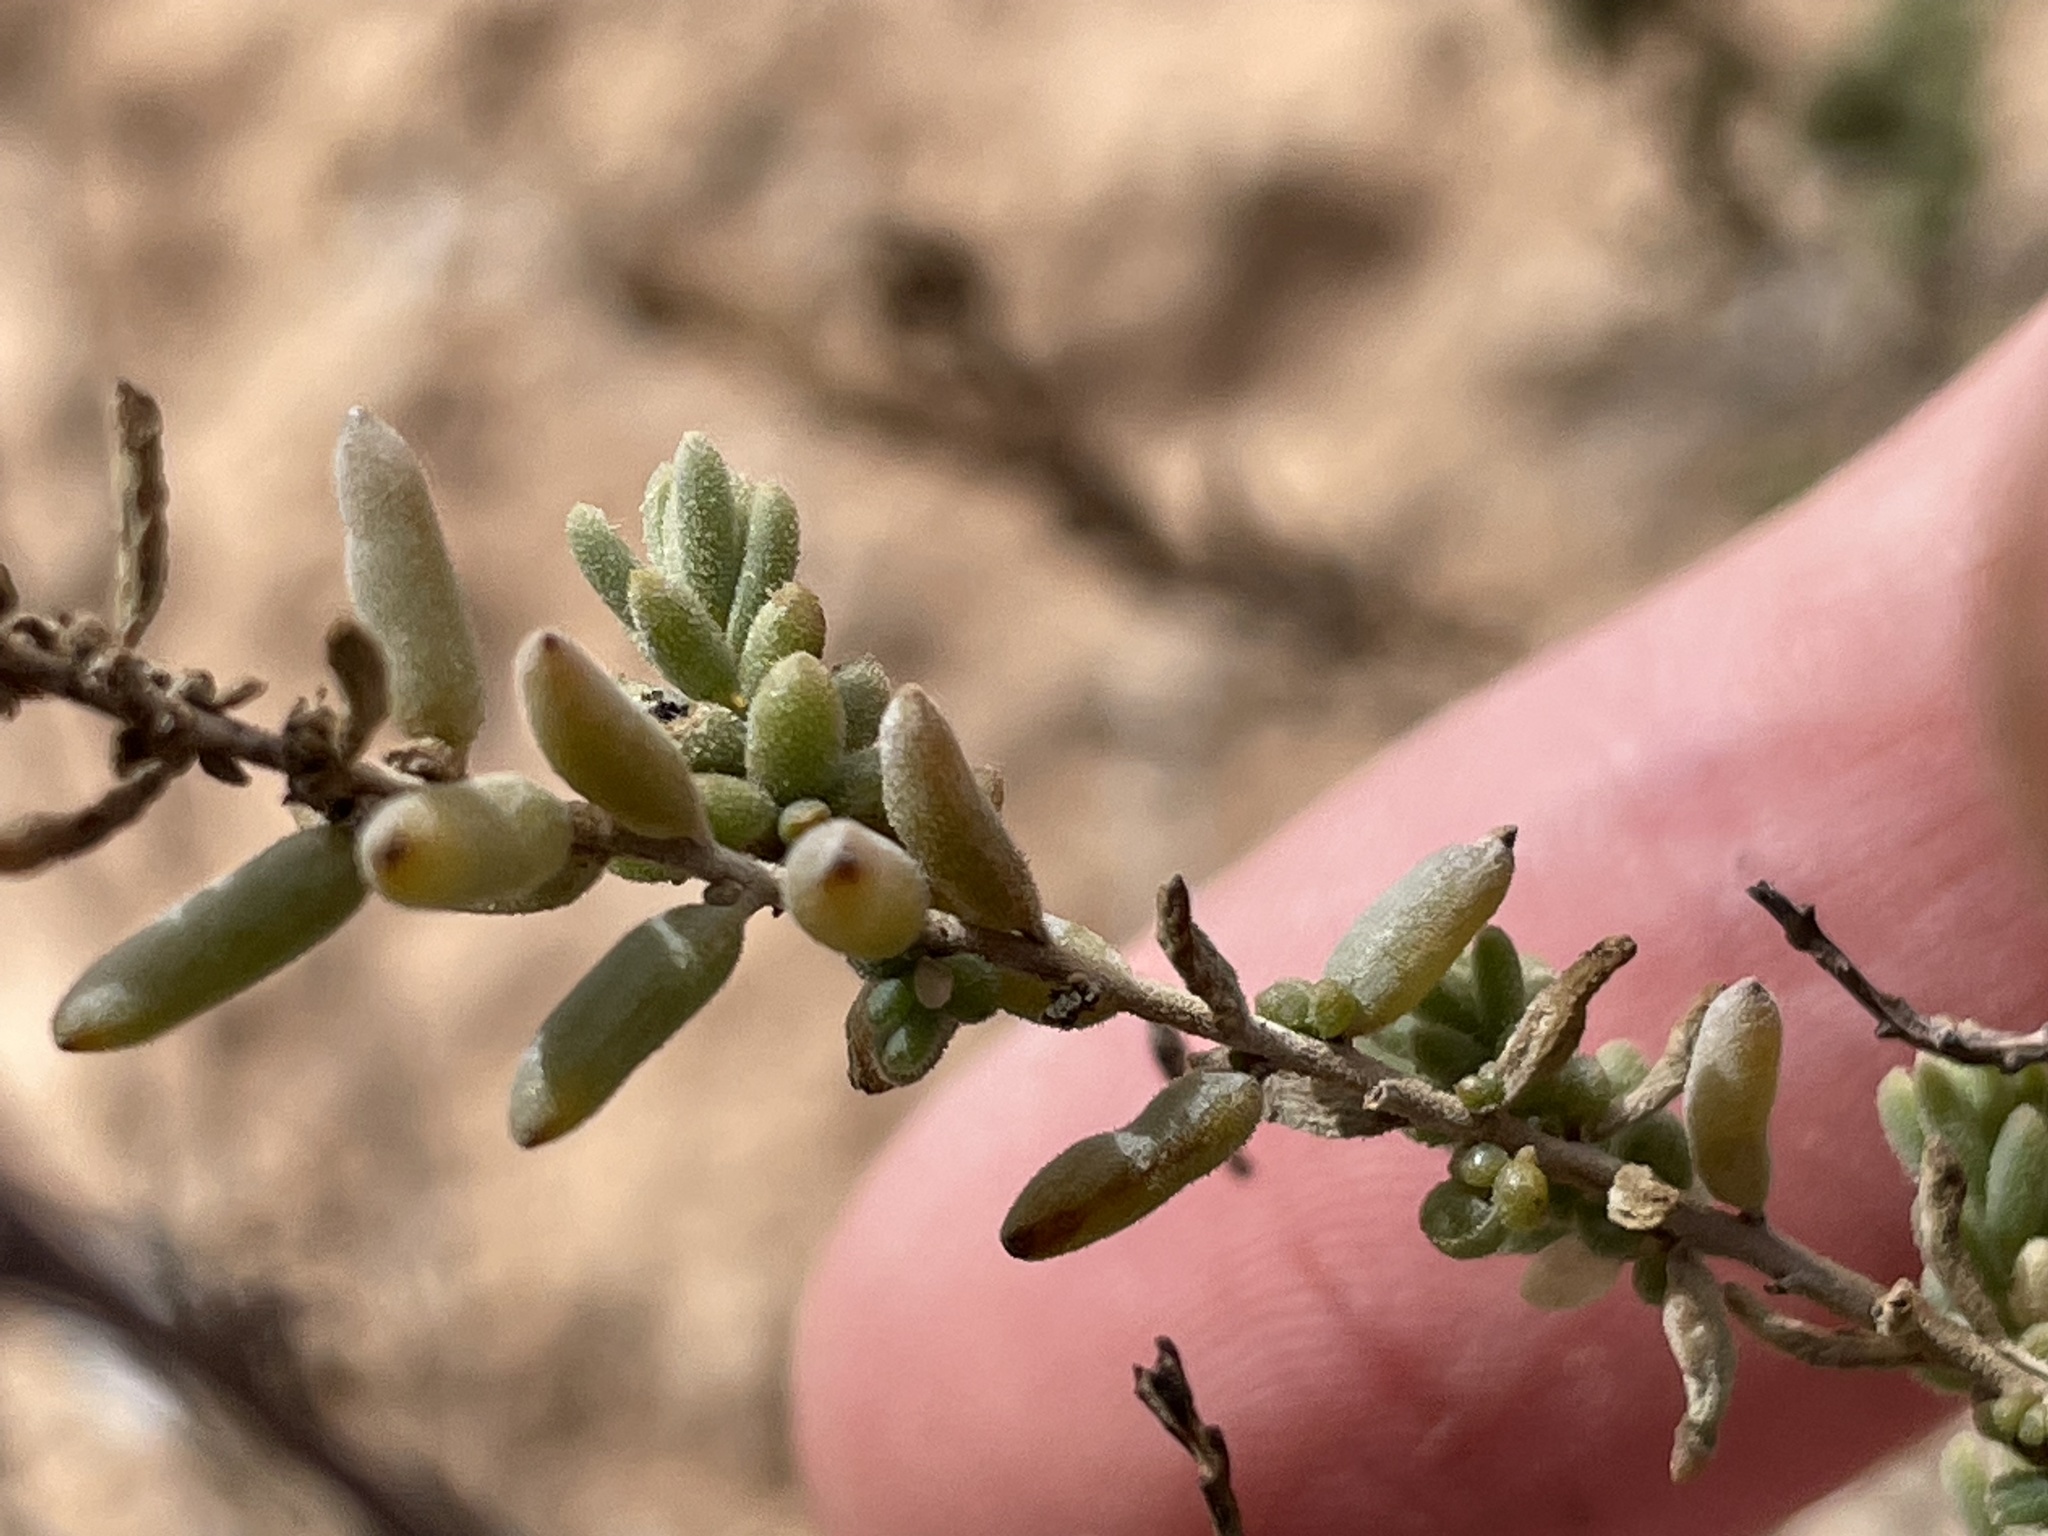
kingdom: Plantae
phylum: Tracheophyta
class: Magnoliopsida
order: Caryophyllales
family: Amaranthaceae
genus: Suaeda
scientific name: Suaeda nigra
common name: Bush seepweed
